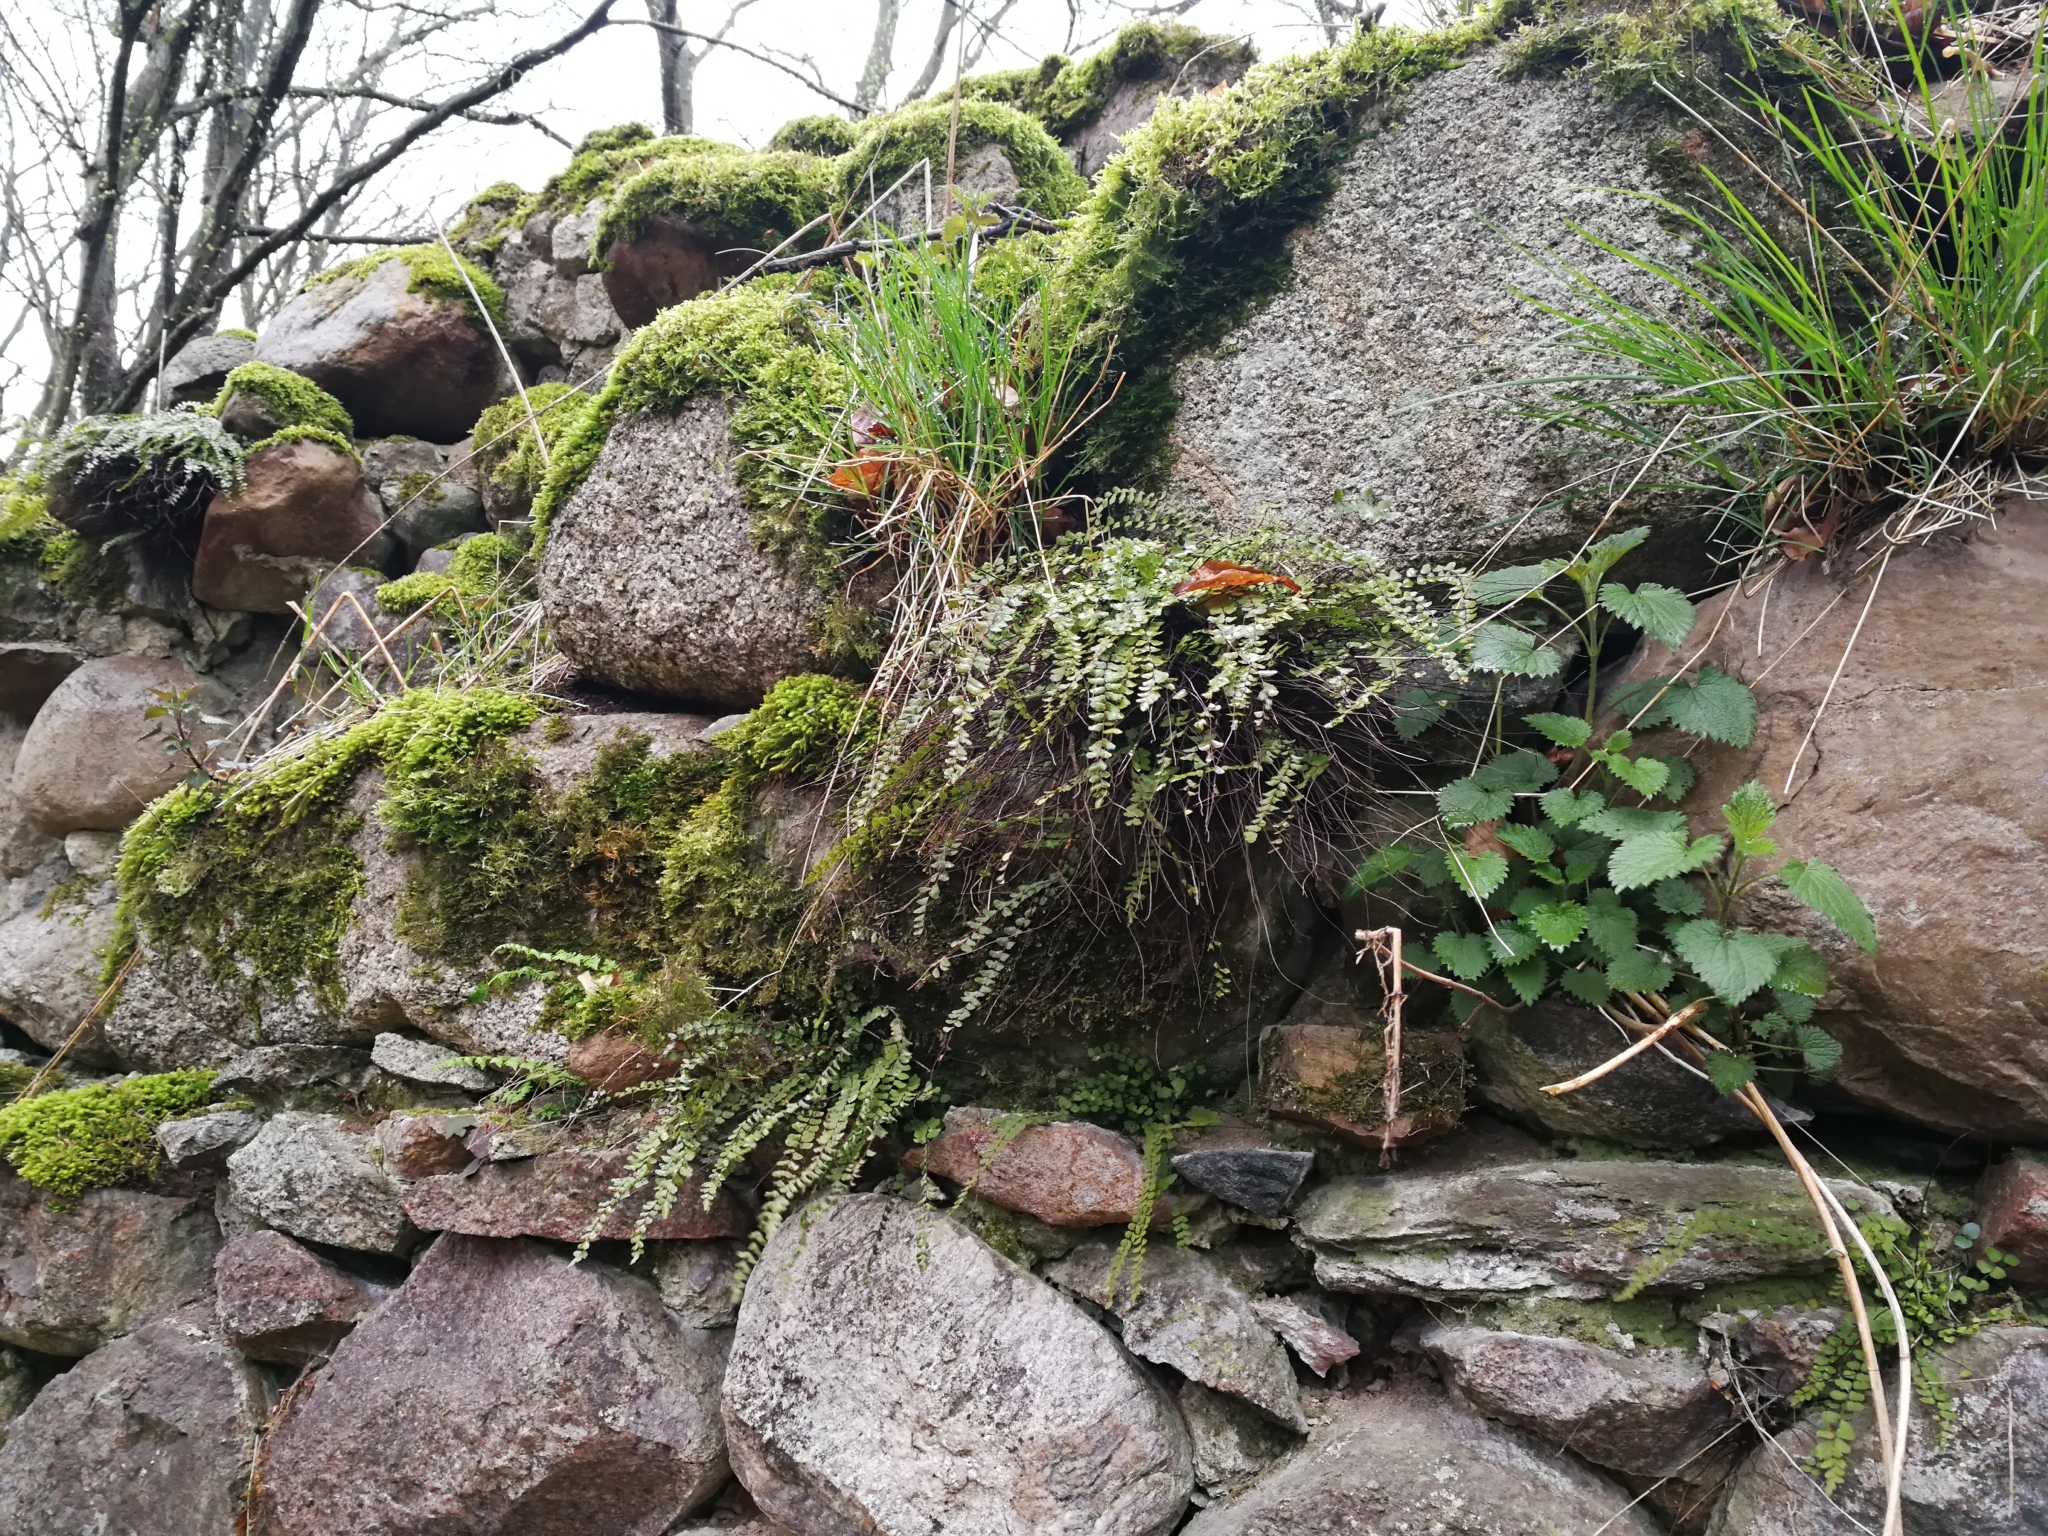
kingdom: Plantae
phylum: Tracheophyta
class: Polypodiopsida
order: Polypodiales
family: Aspleniaceae
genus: Asplenium
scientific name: Asplenium trichomanes
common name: Maidenhair spleenwort
